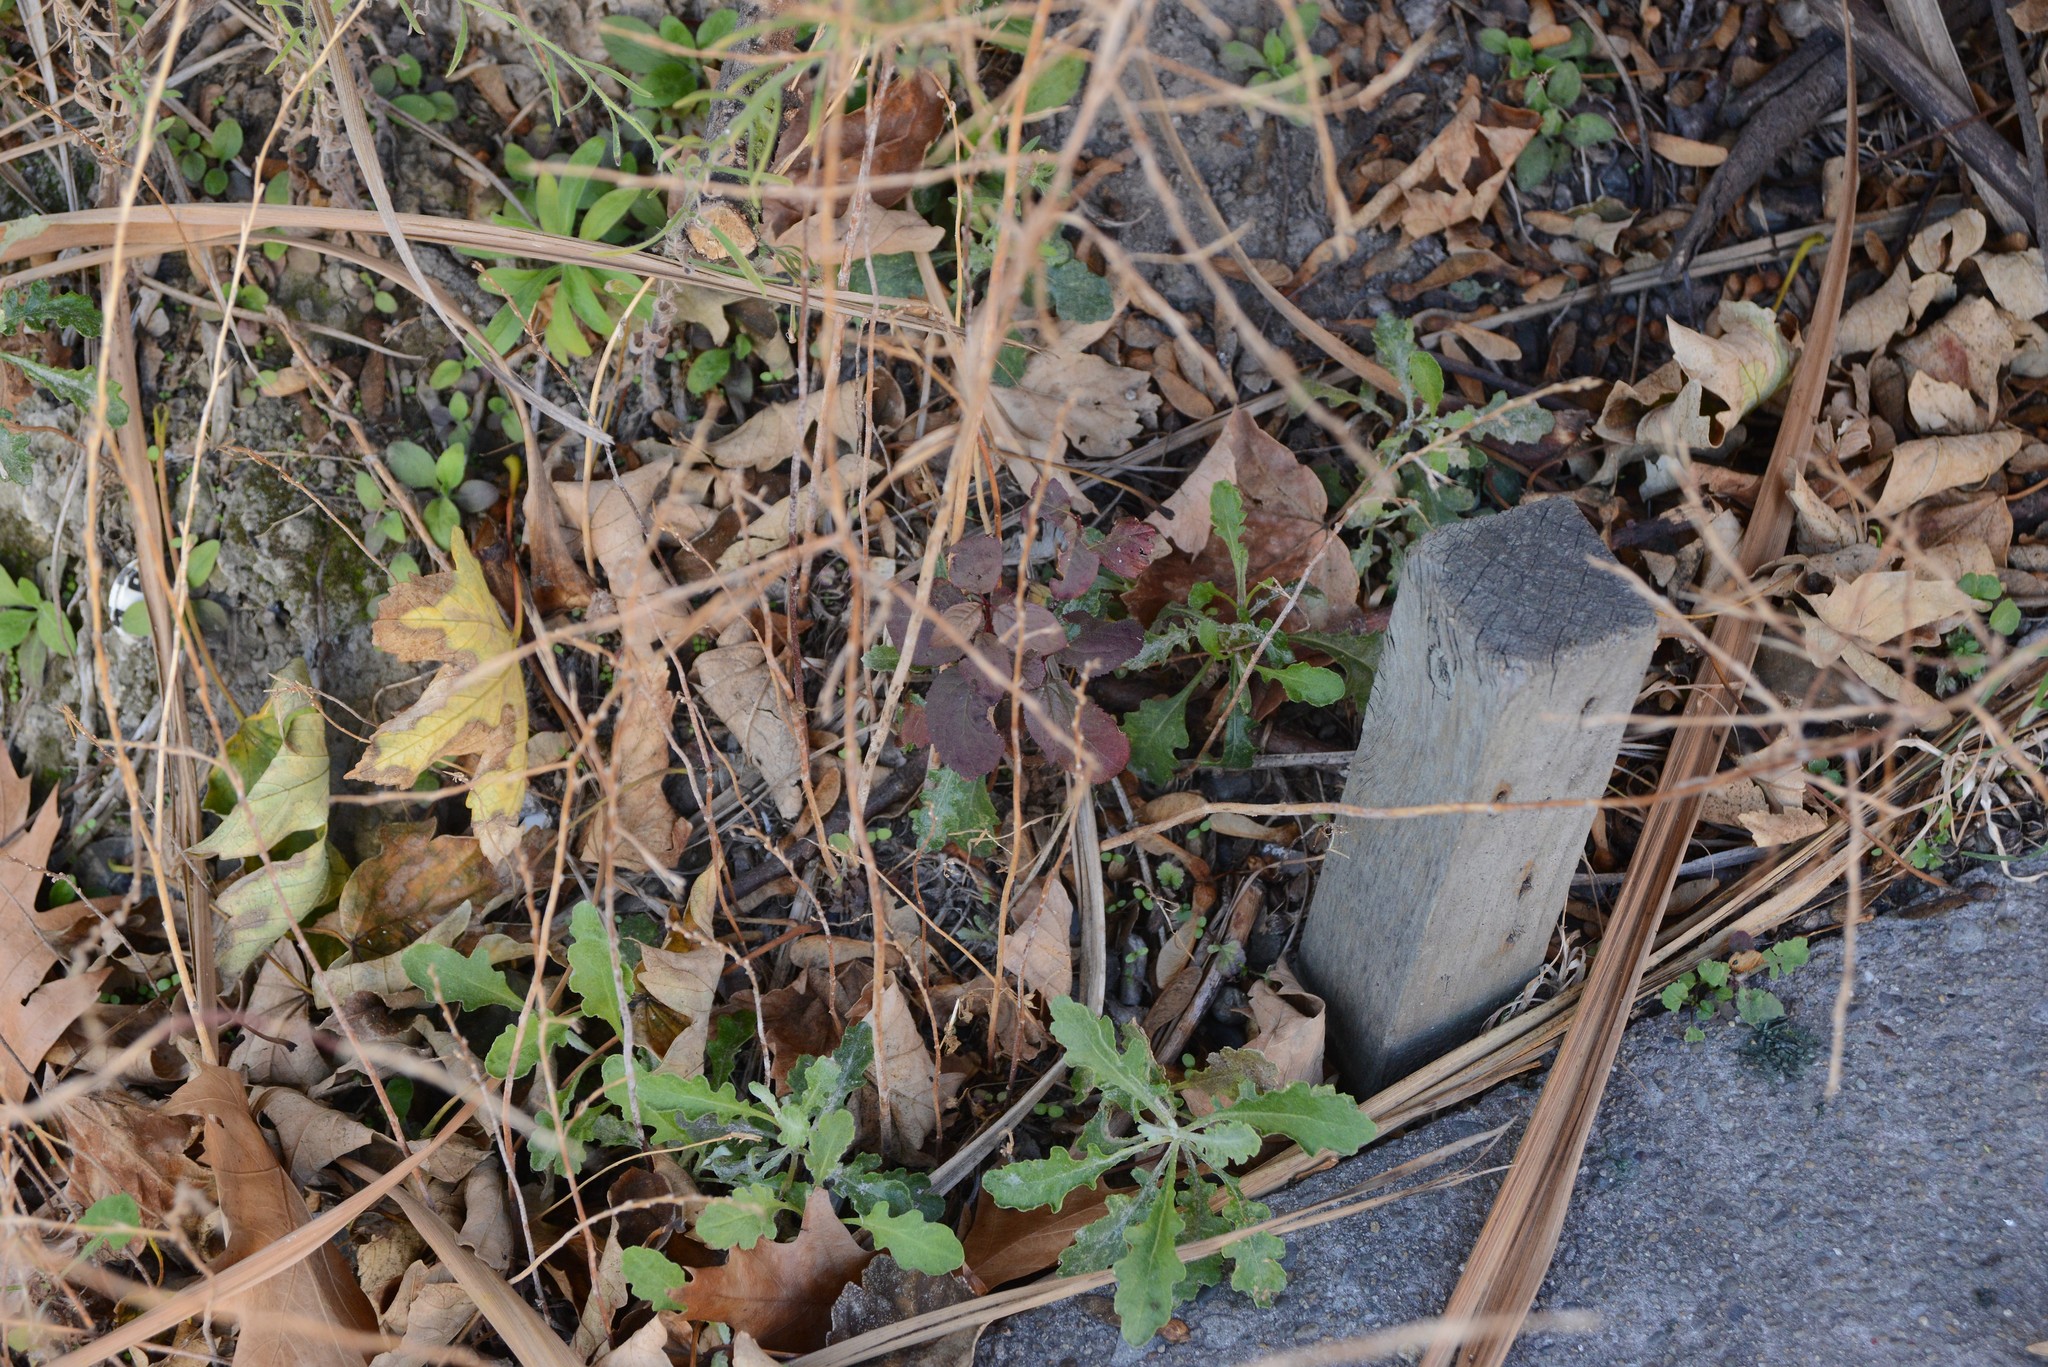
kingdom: Plantae
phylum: Tracheophyta
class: Magnoliopsida
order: Asterales
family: Asteraceae
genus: Senecio
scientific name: Senecio glomeratus
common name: Cutleaf burnweed
